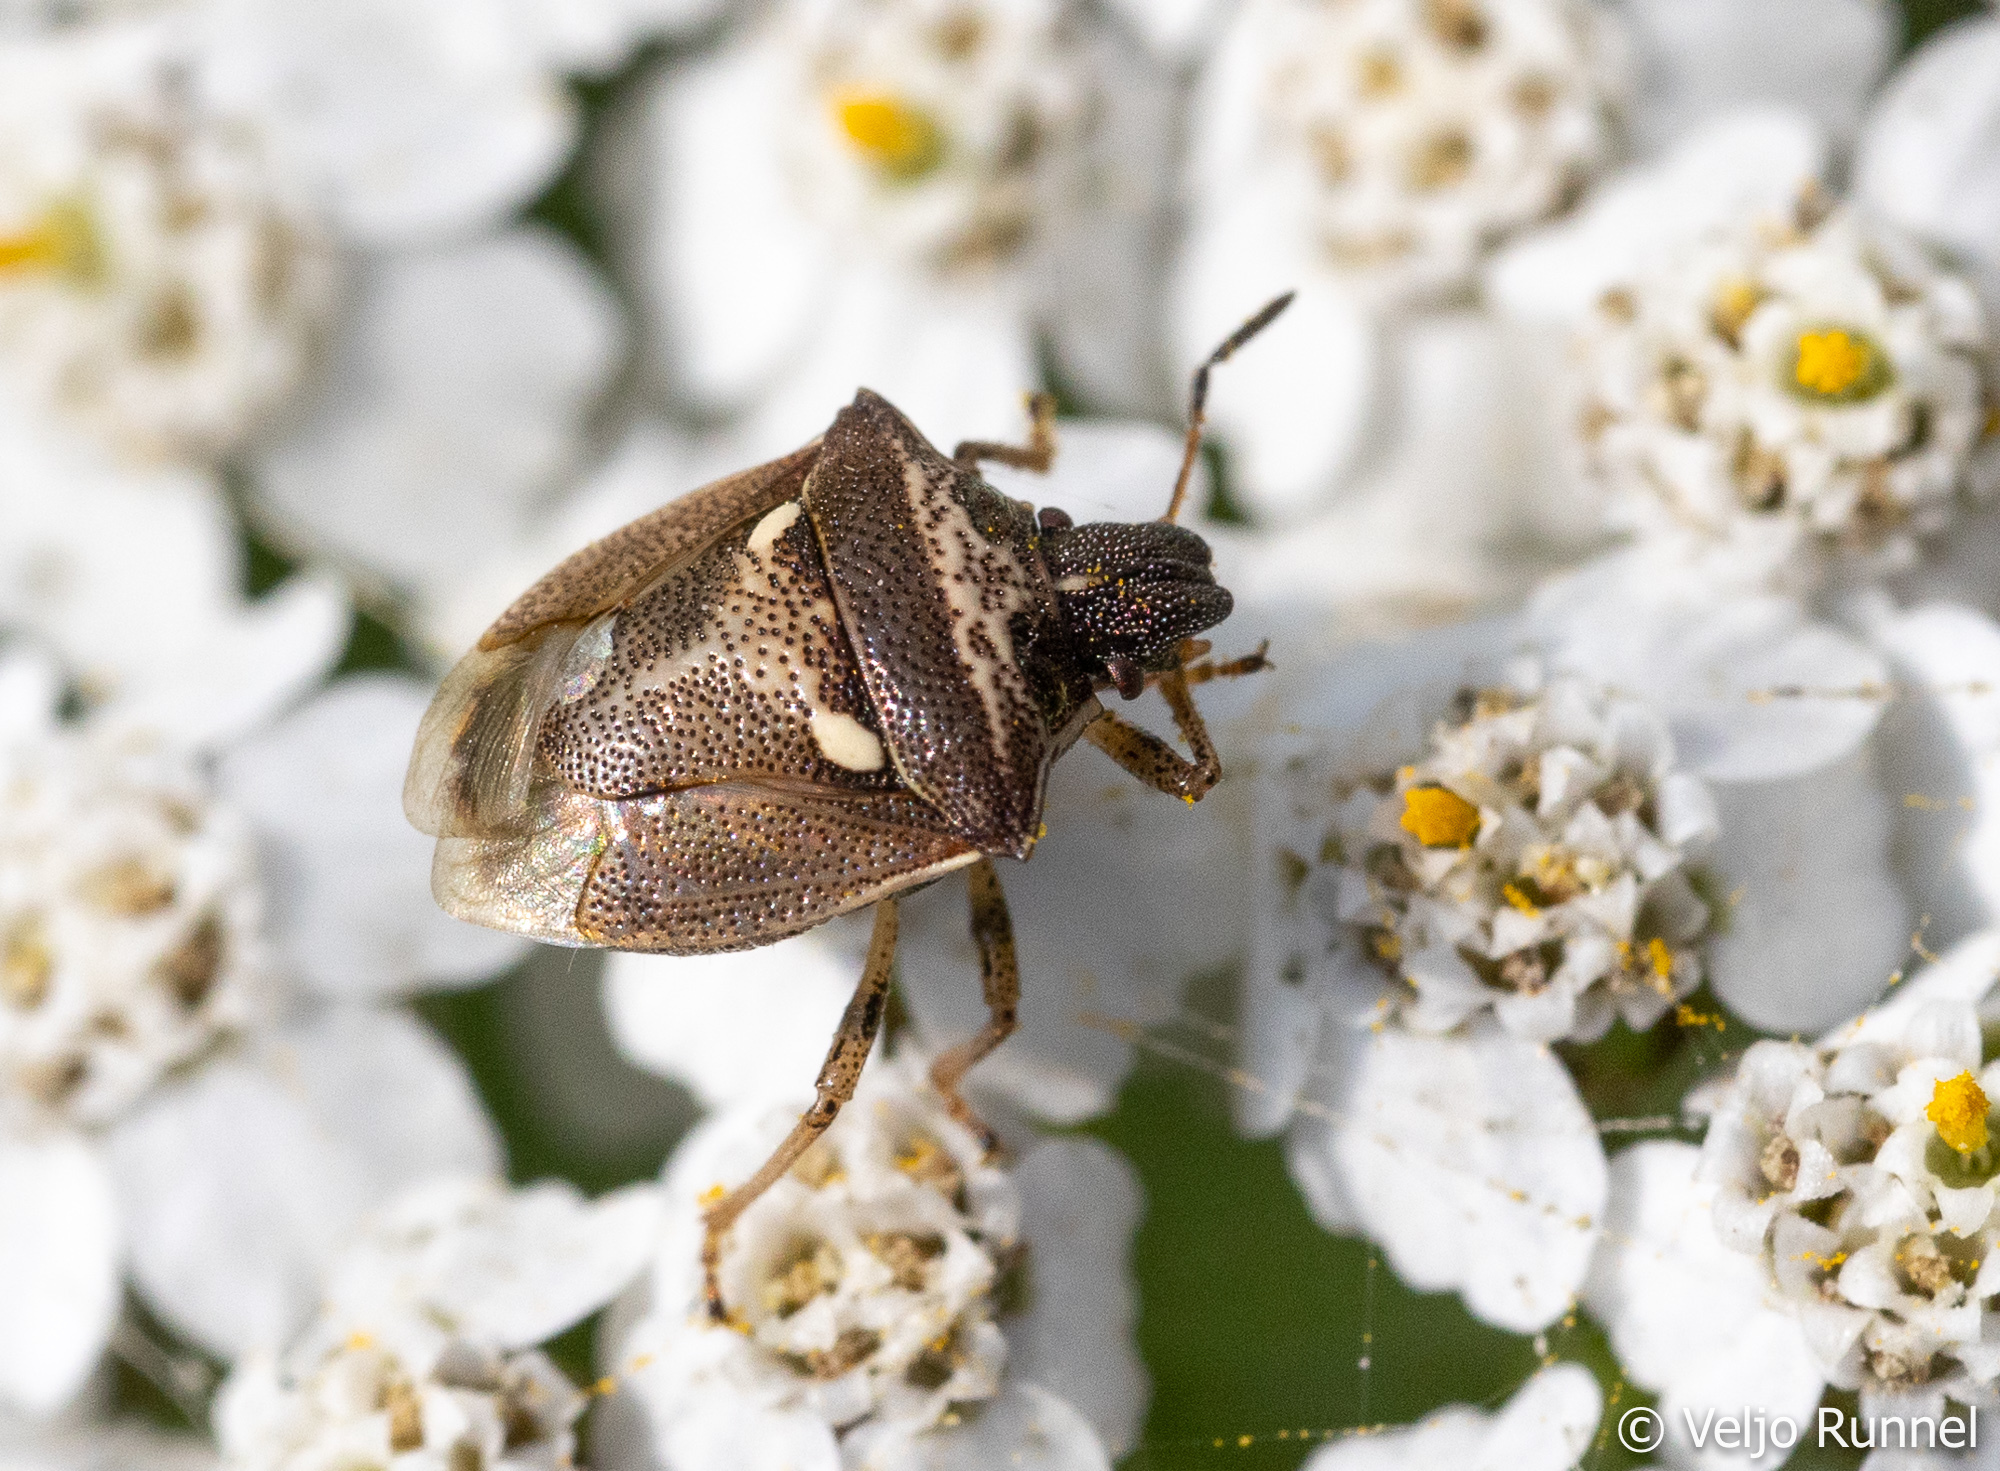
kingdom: Animalia
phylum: Arthropoda
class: Insecta
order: Hemiptera
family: Pentatomidae
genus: Eysarcoris
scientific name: Eysarcoris aeneus
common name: New forest shieldbug
